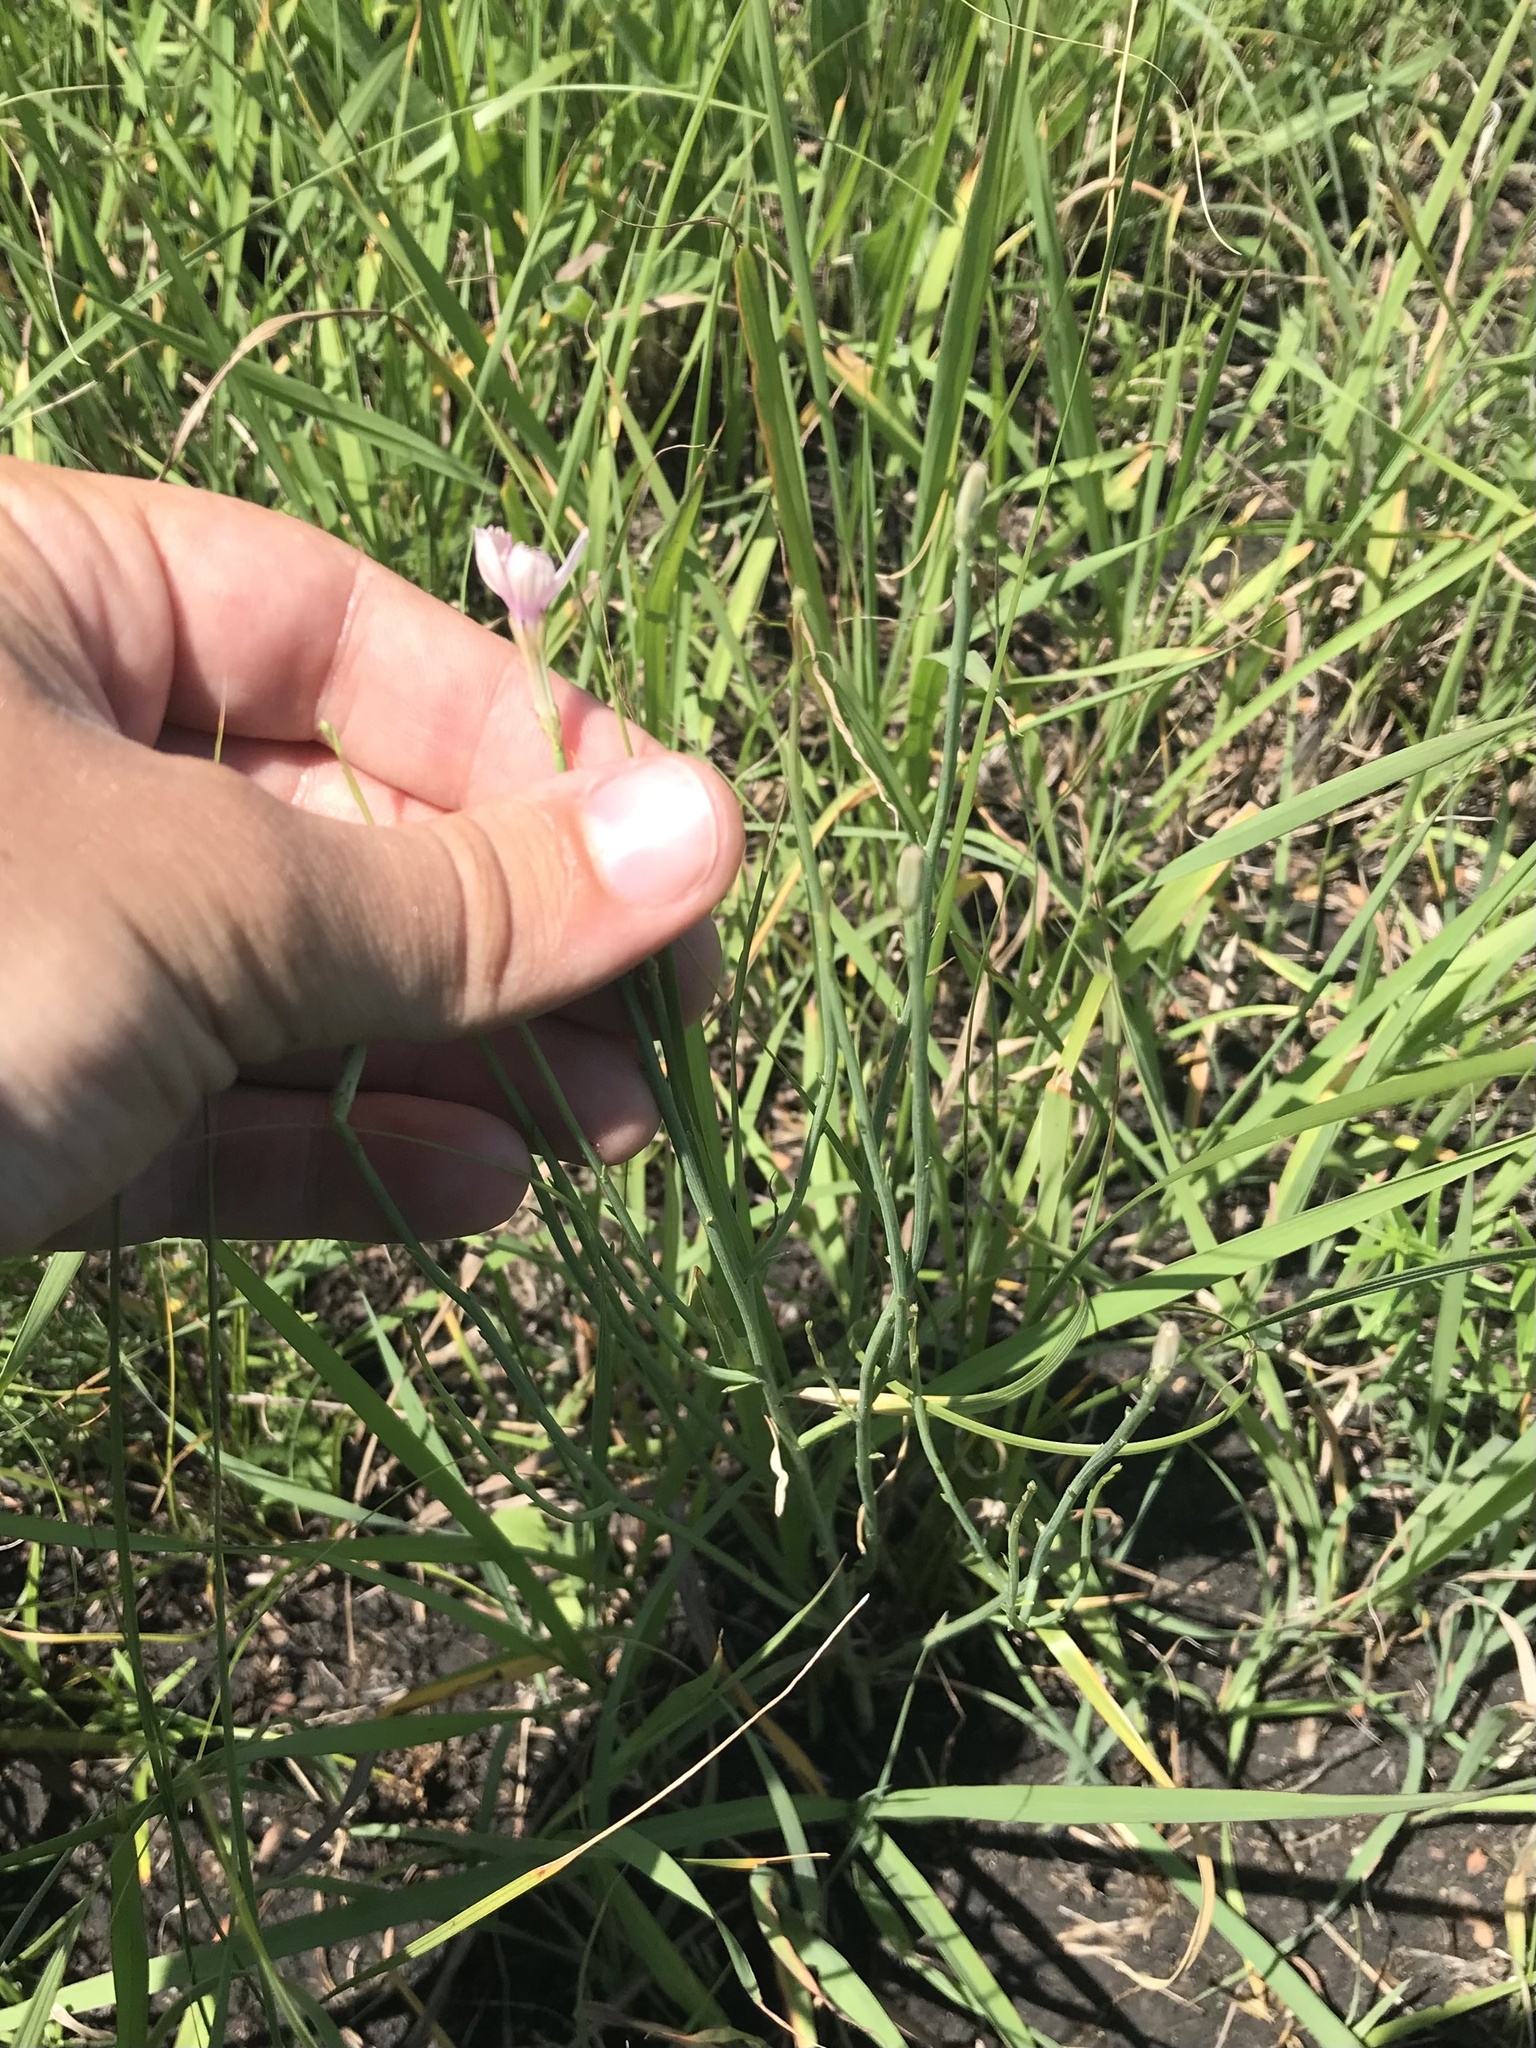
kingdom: Plantae
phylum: Tracheophyta
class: Magnoliopsida
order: Asterales
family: Asteraceae
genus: Lygodesmia
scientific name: Lygodesmia juncea
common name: Common skeletonweed
